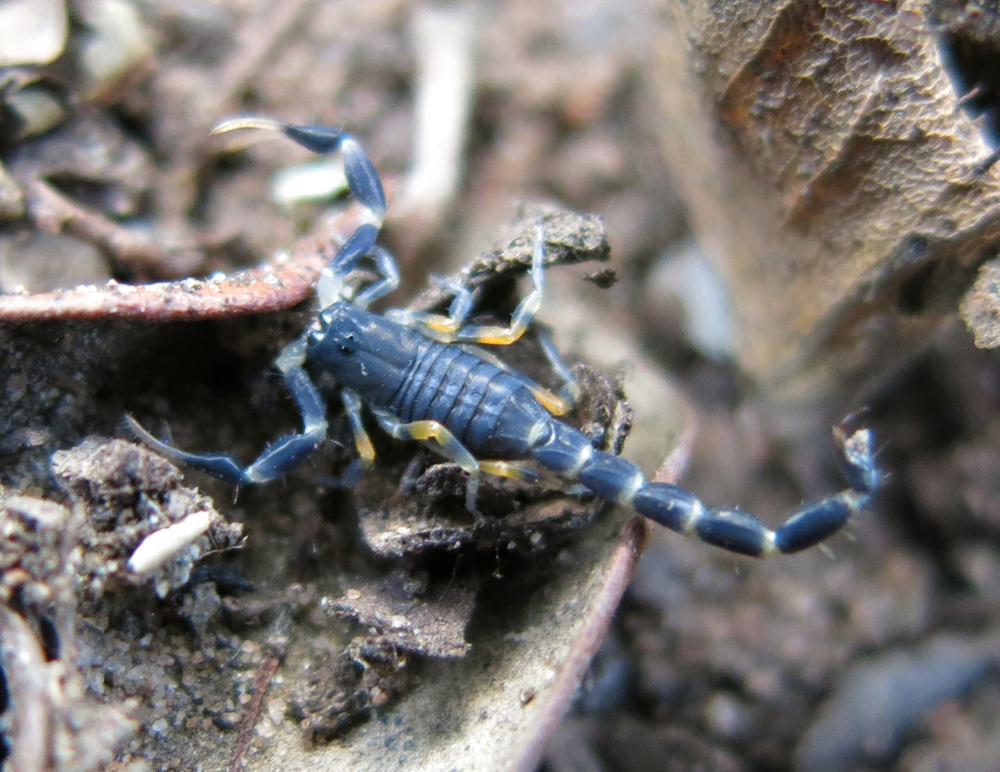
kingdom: Animalia
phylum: Arthropoda
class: Arachnida
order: Scorpiones
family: Buthidae
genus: Uroplectes
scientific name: Uroplectes olivaceus
